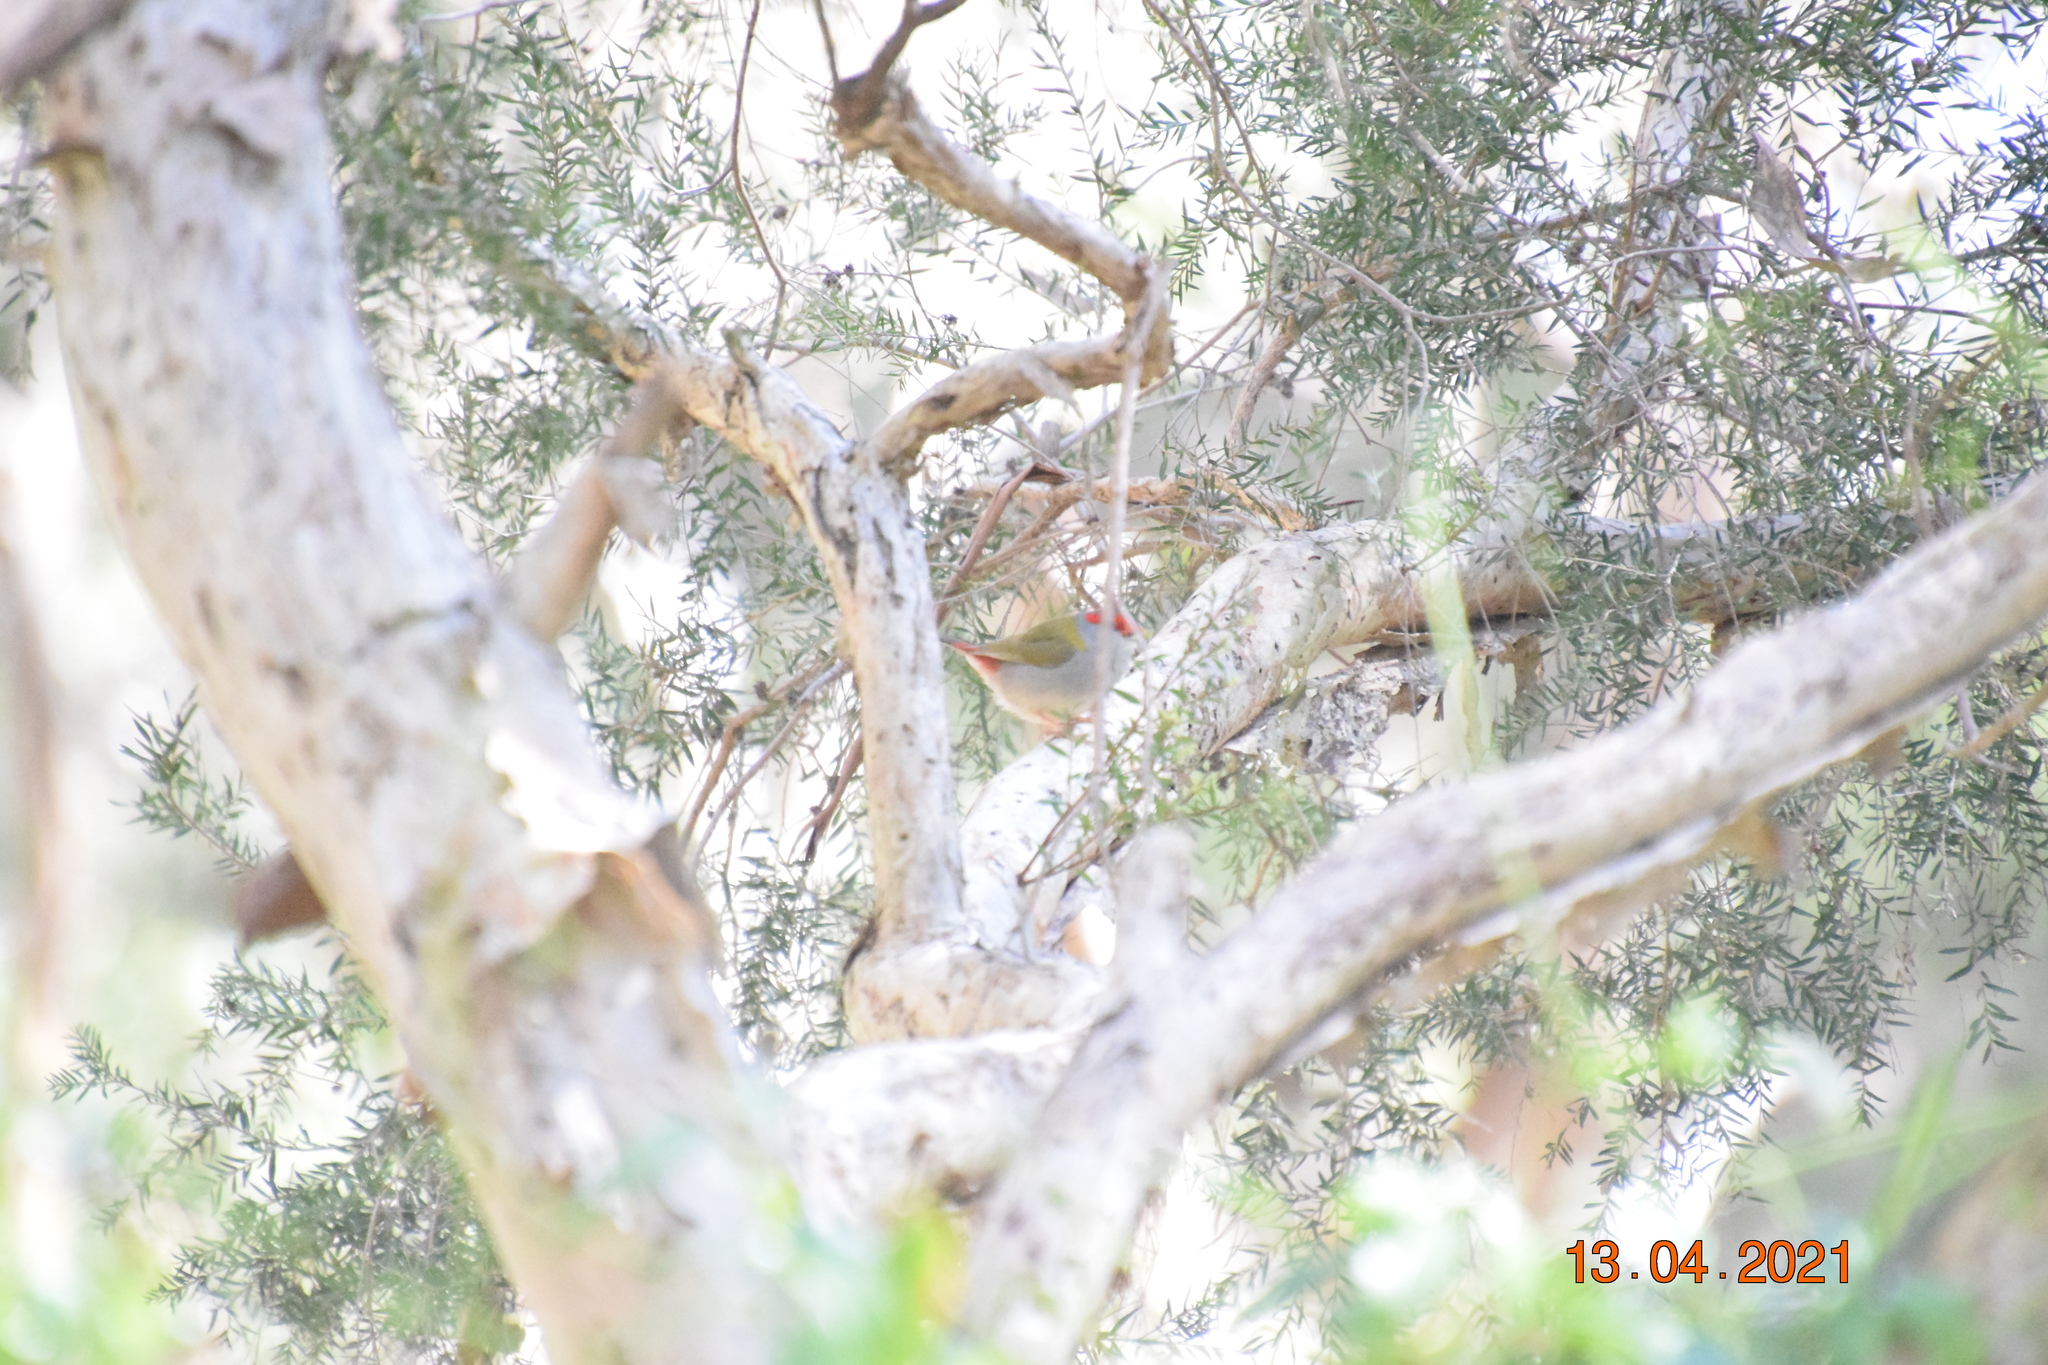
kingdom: Animalia
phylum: Chordata
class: Aves
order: Passeriformes
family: Estrildidae
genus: Neochmia
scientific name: Neochmia temporalis
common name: Red-browed finch
